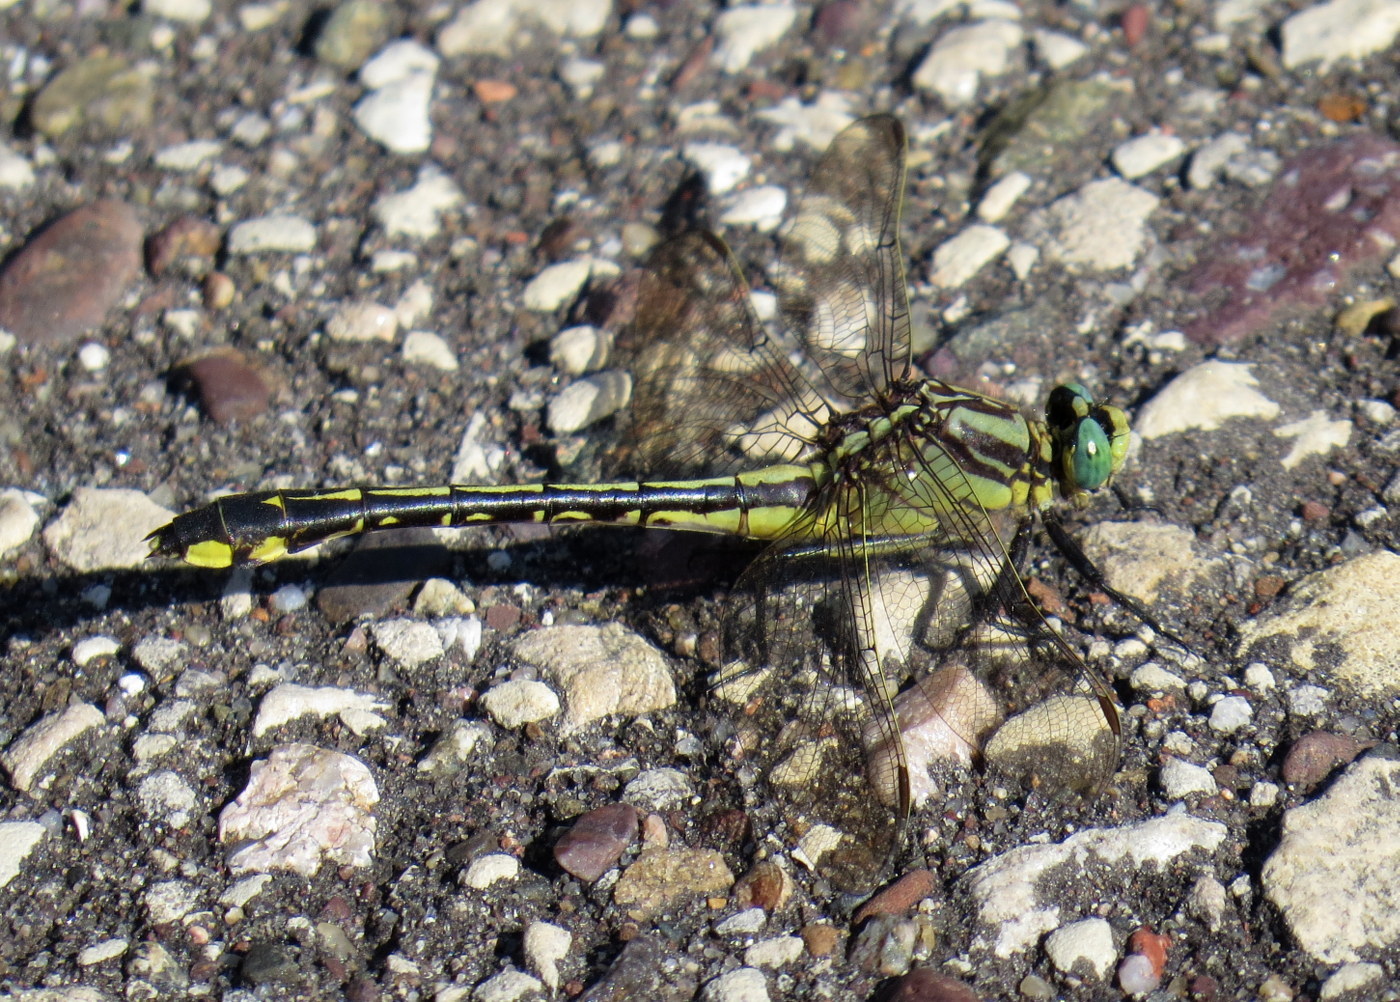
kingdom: Animalia
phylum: Arthropoda
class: Insecta
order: Odonata
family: Gomphidae
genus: Gomphurus
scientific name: Gomphurus fraternus
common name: Midland clubtail
